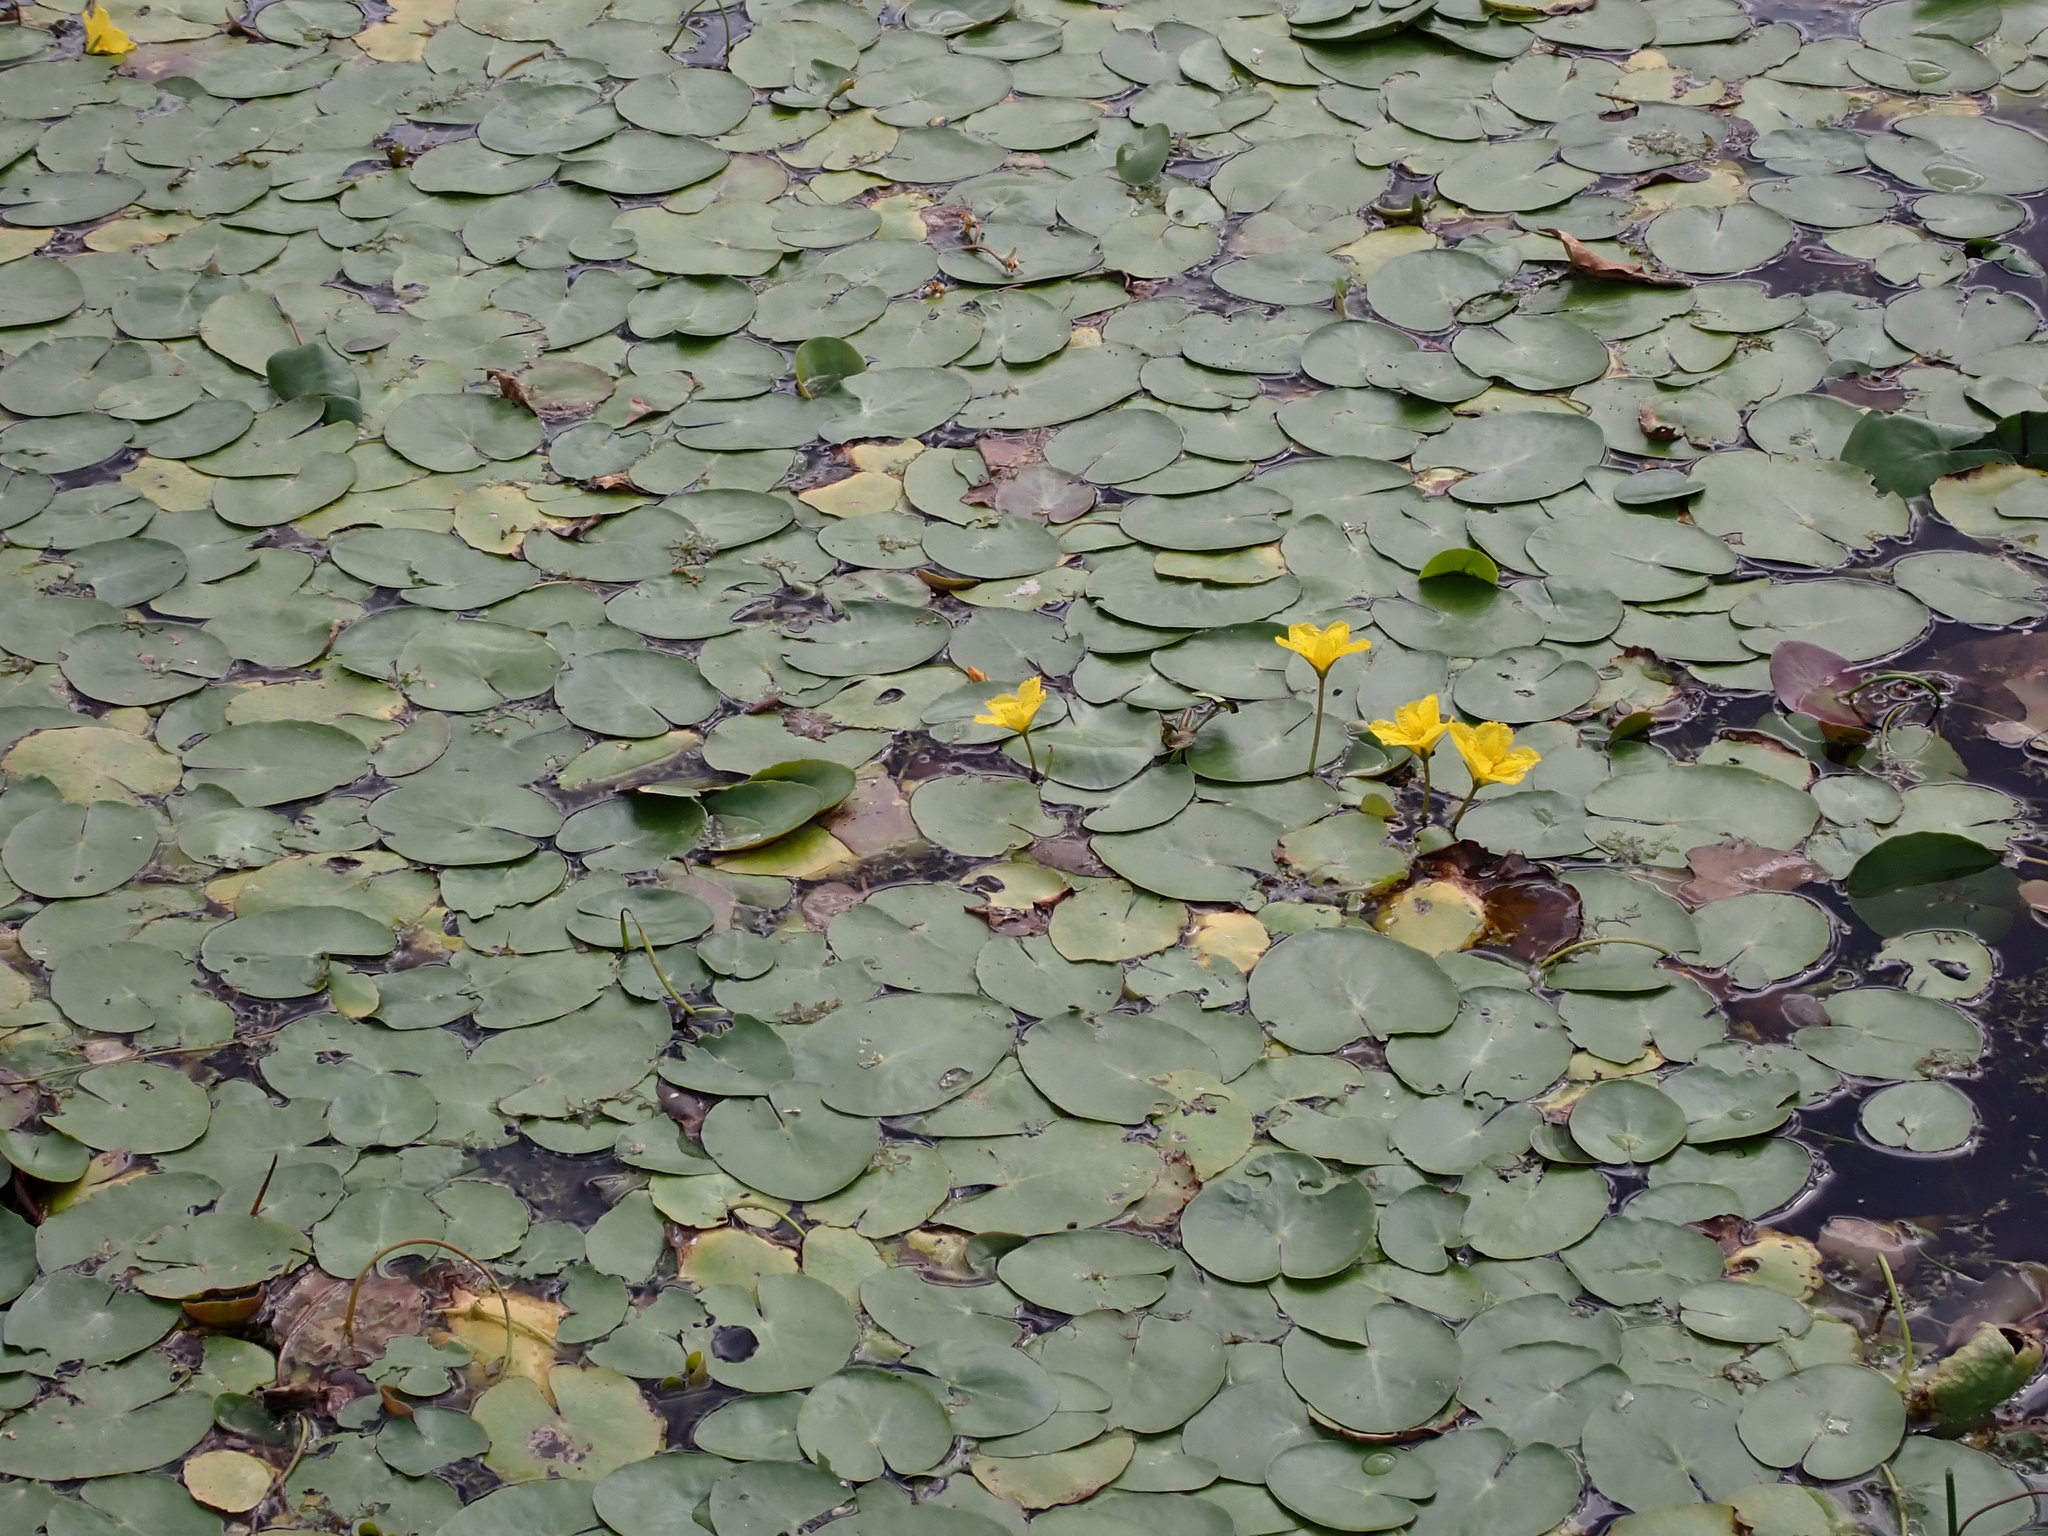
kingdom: Plantae
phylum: Tracheophyta
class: Magnoliopsida
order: Asterales
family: Menyanthaceae
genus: Nymphoides
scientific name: Nymphoides peltata
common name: Fringed water-lily
